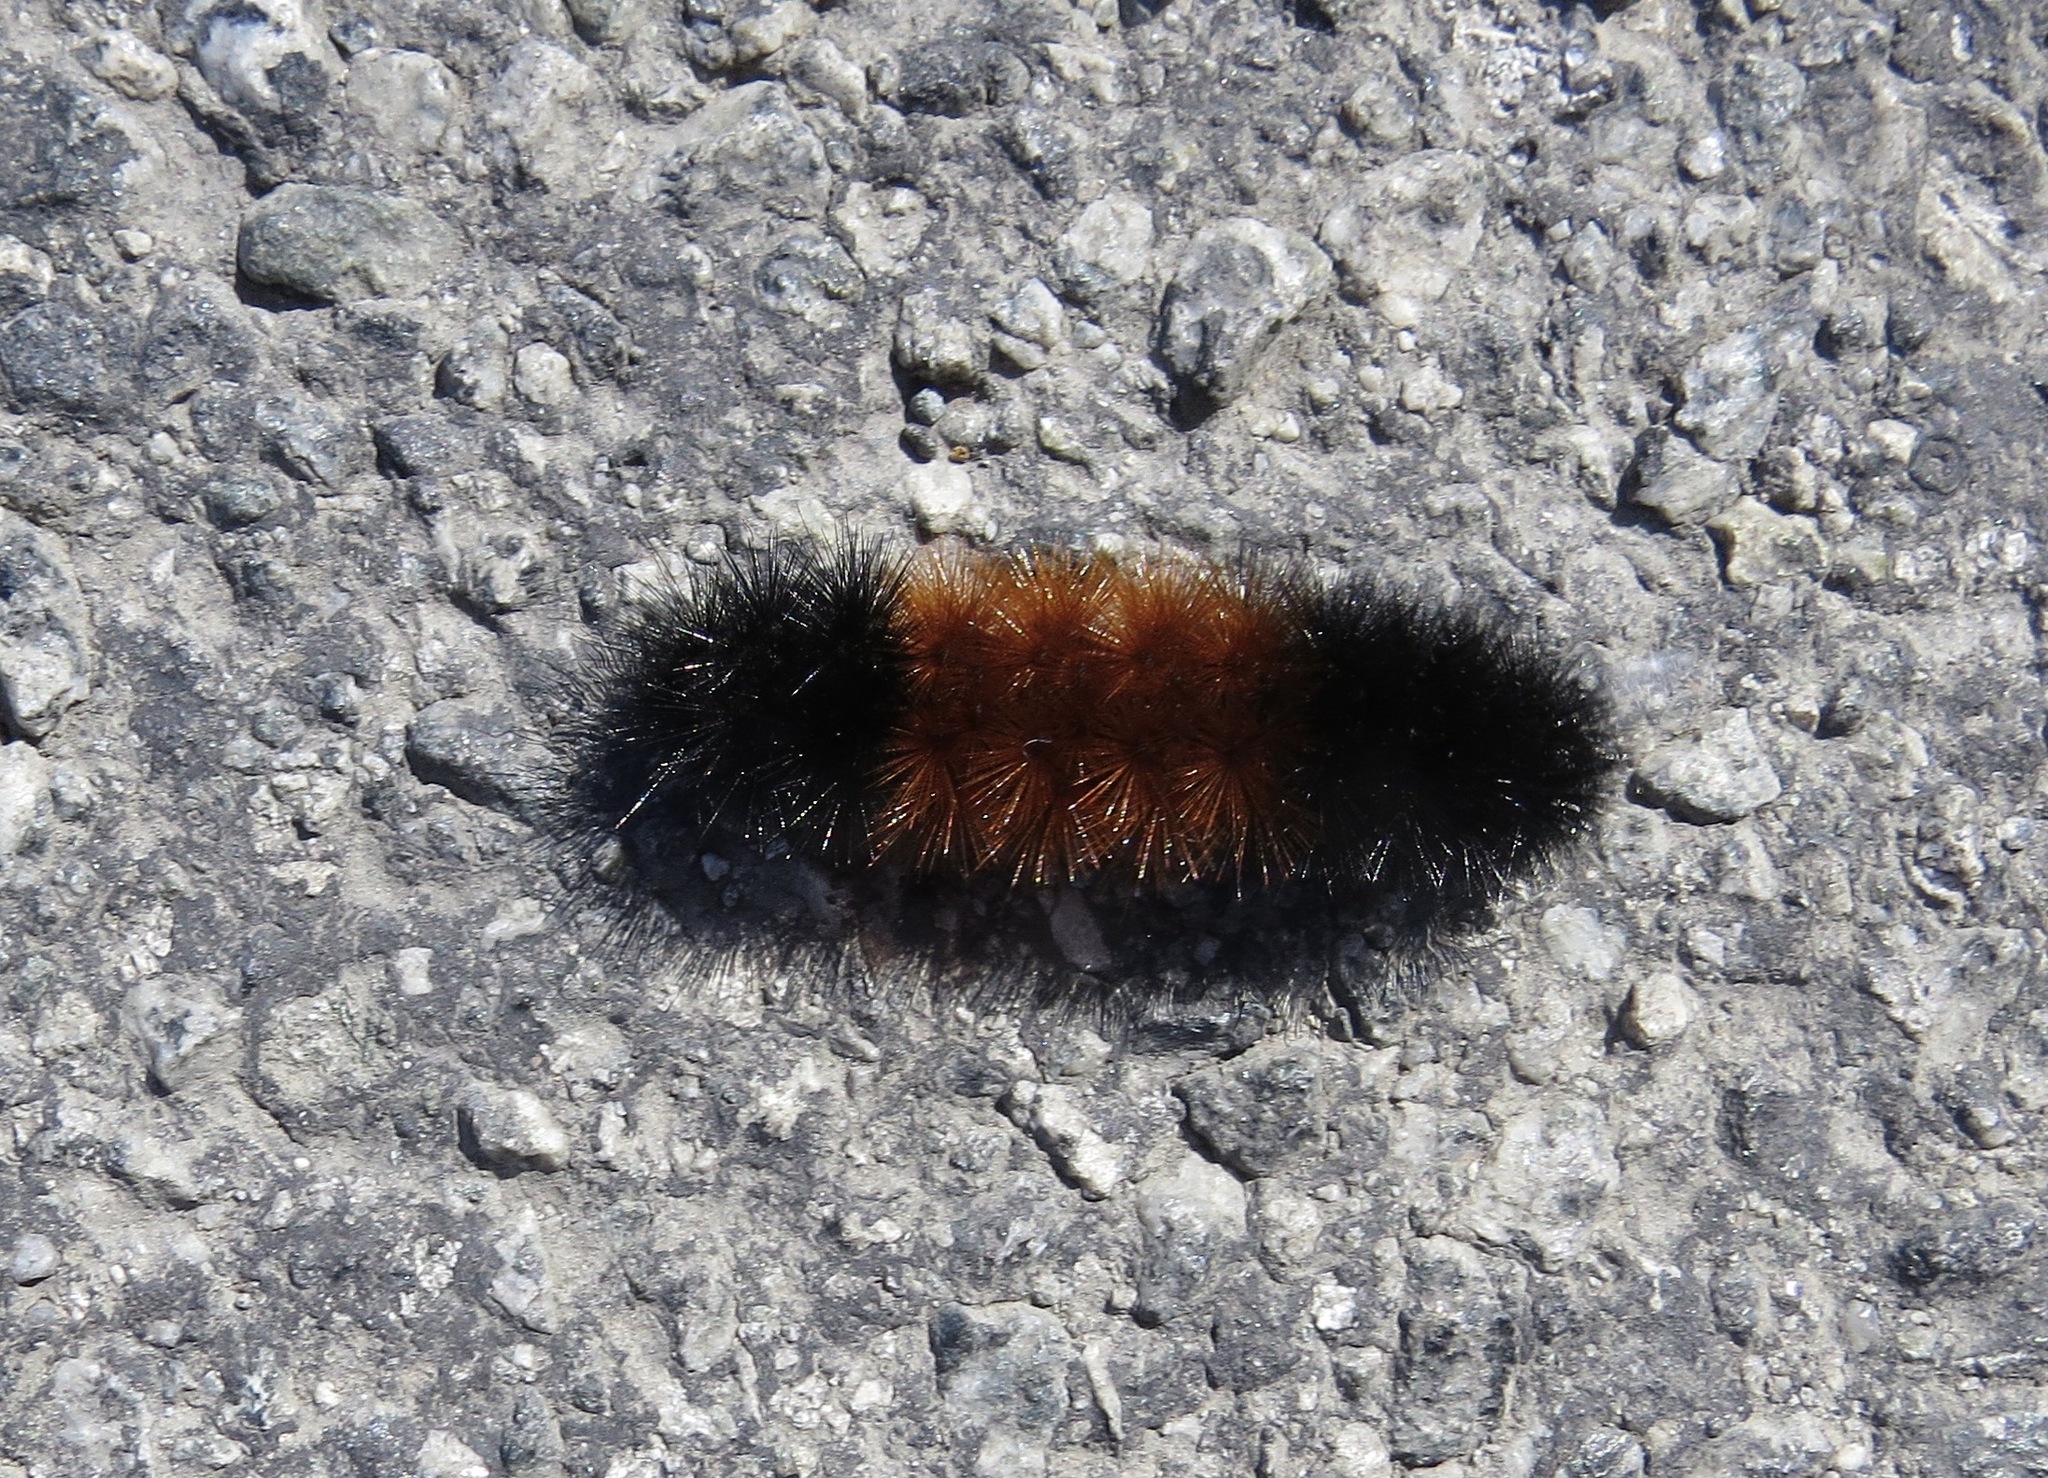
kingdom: Animalia
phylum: Arthropoda
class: Insecta
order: Lepidoptera
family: Erebidae
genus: Pyrrharctia
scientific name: Pyrrharctia isabella
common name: Isabella tiger moth
